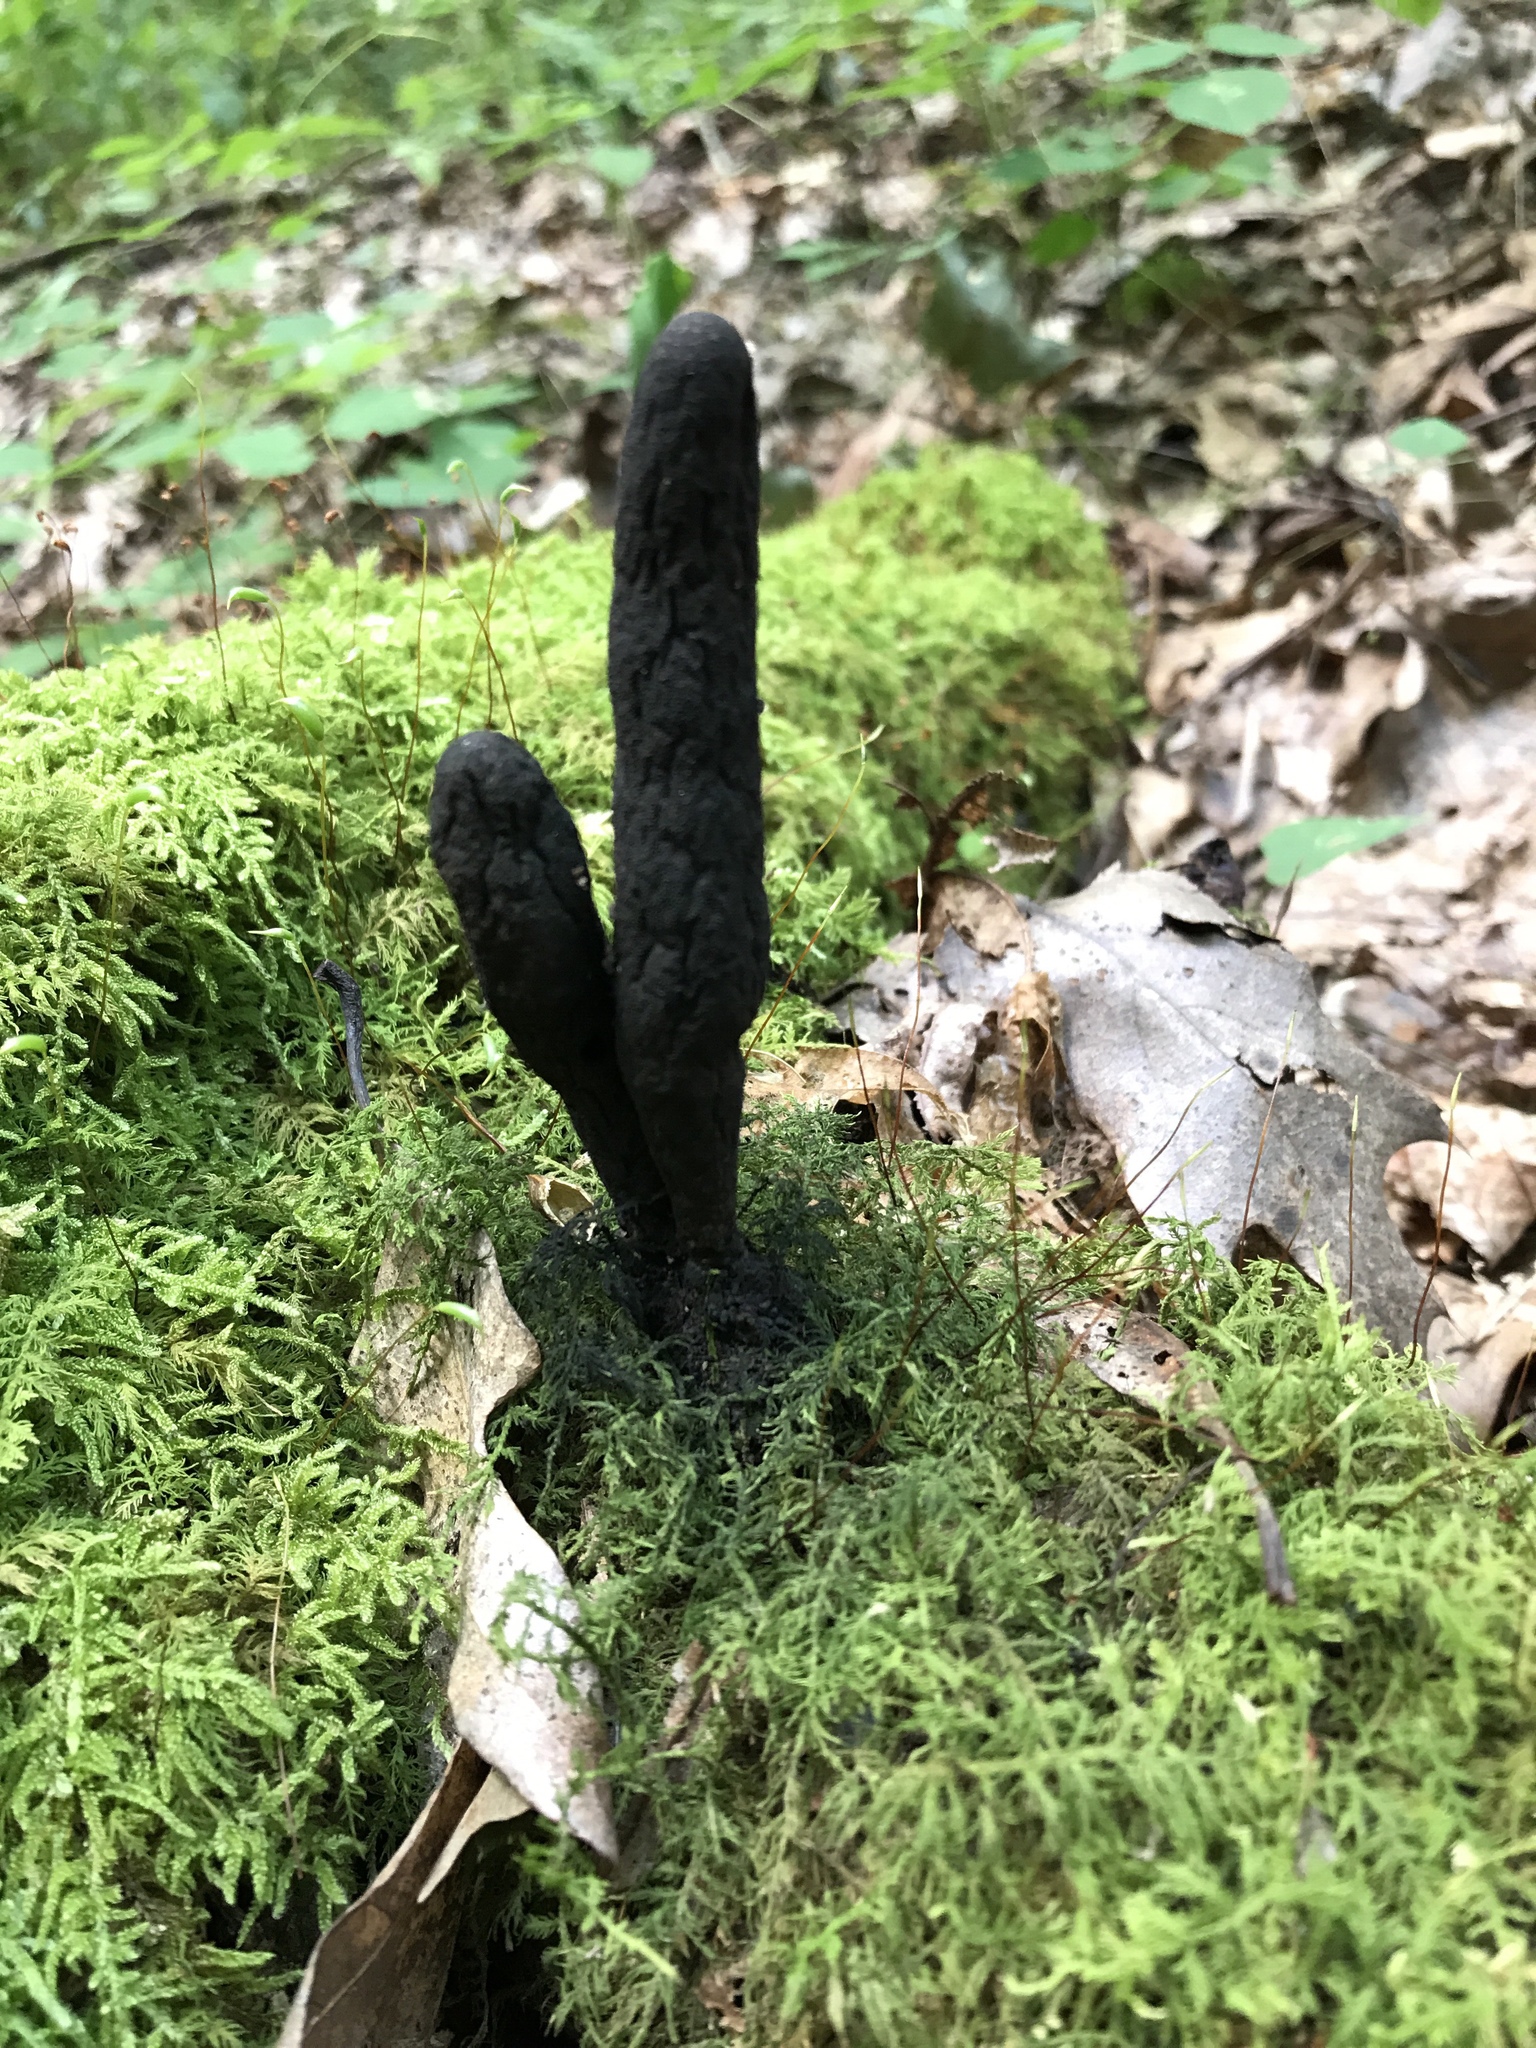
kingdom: Fungi
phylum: Ascomycota
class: Sordariomycetes
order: Xylariales
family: Xylariaceae
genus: Xylaria
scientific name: Xylaria polymorpha
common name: Dead man's fingers
